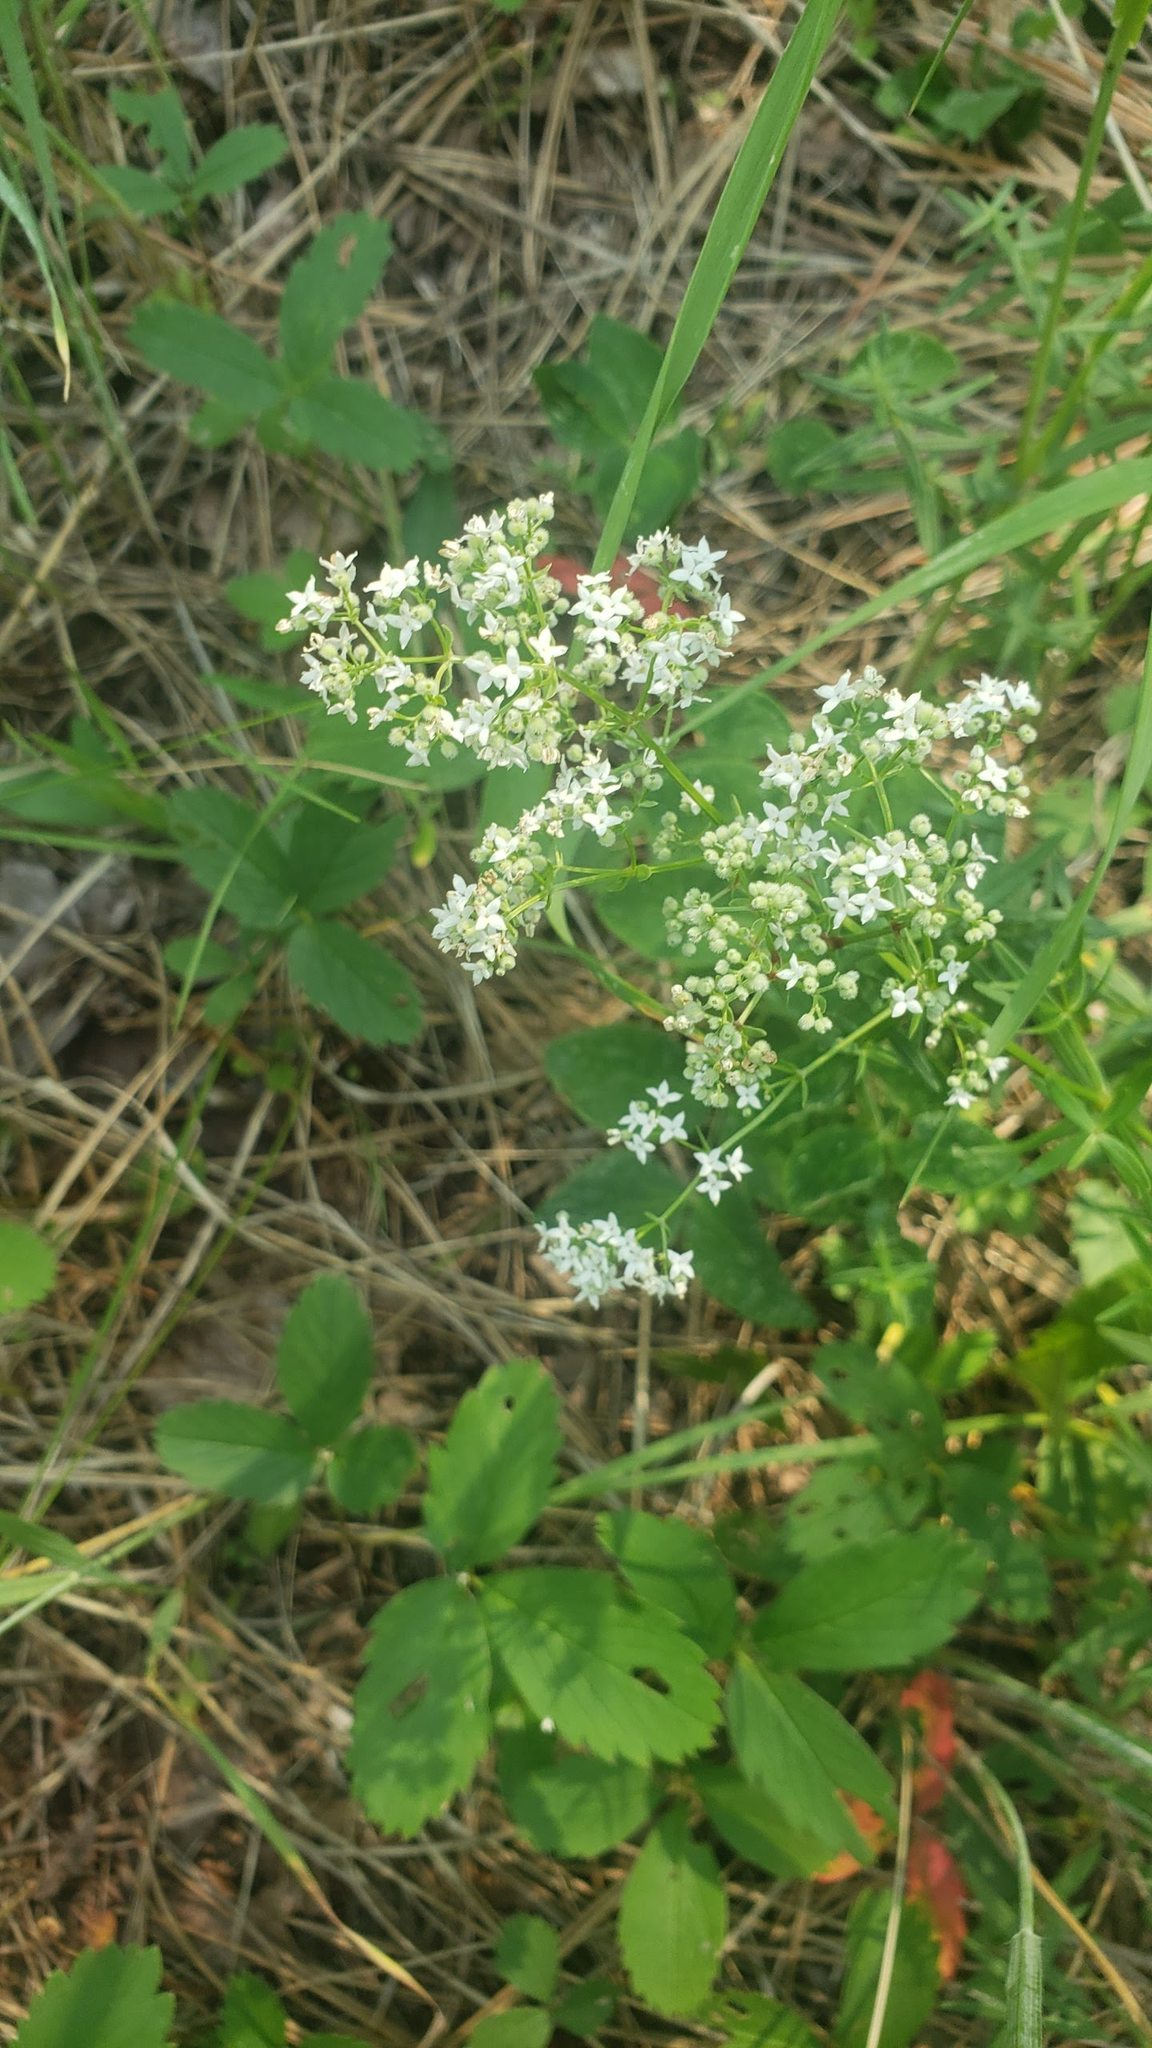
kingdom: Plantae
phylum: Tracheophyta
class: Magnoliopsida
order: Gentianales
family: Rubiaceae
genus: Galium
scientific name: Galium boreale
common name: Northern bedstraw
